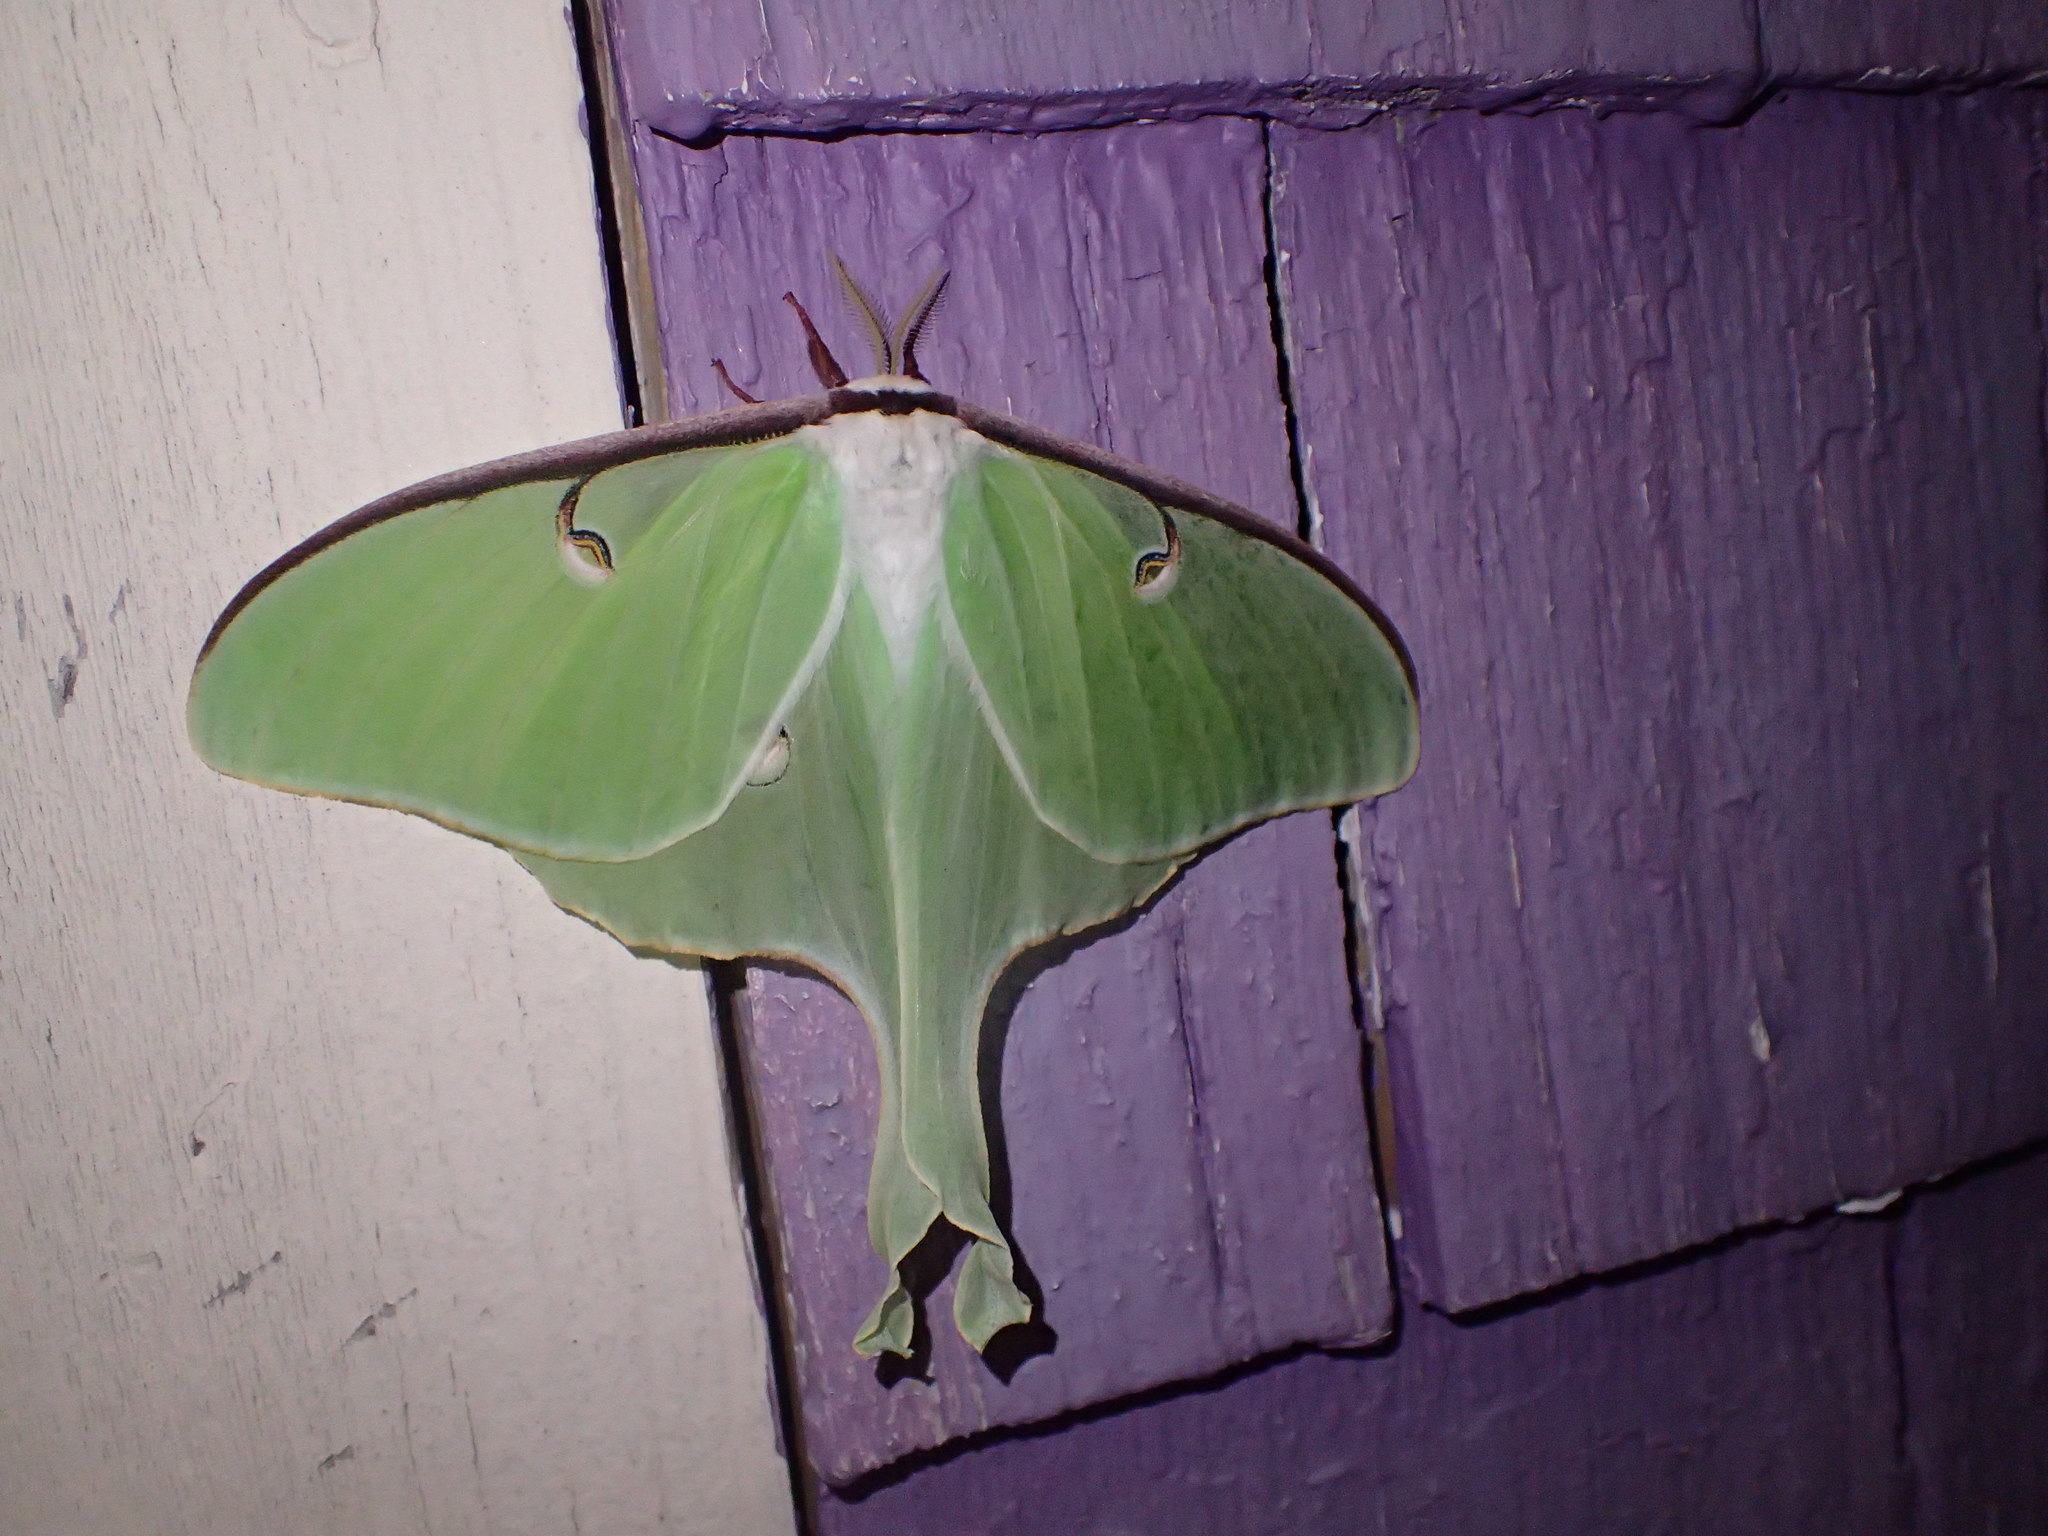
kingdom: Animalia
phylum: Arthropoda
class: Insecta
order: Lepidoptera
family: Saturniidae
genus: Actias
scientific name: Actias luna
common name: Luna moth
